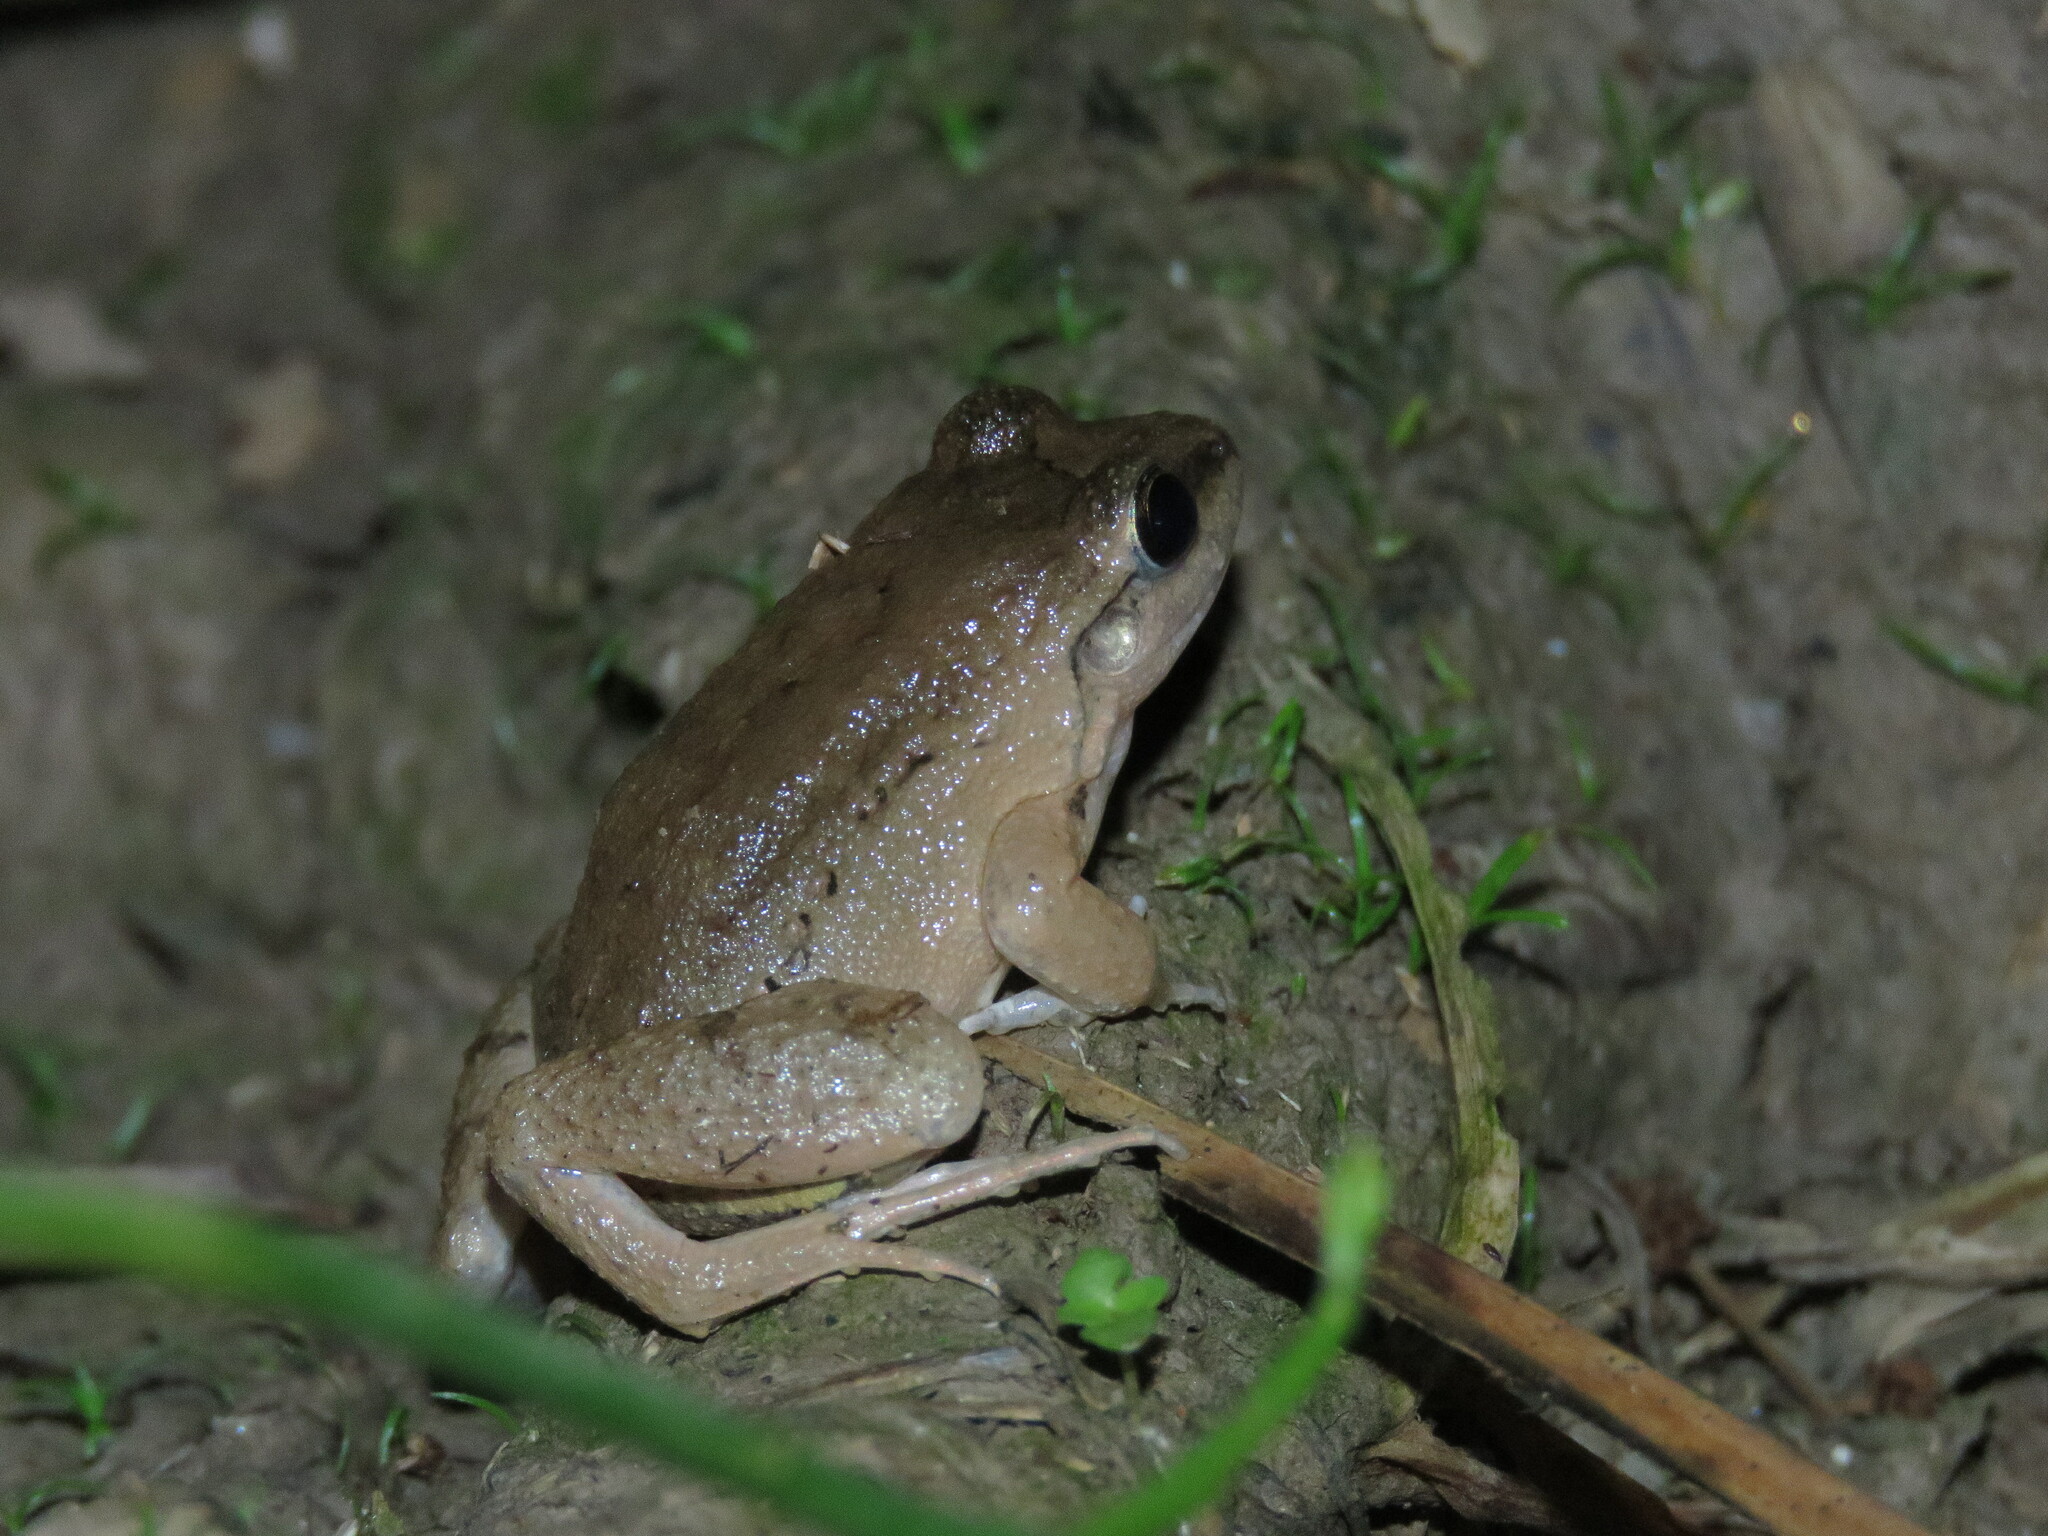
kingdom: Animalia
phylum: Chordata
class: Amphibia
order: Anura
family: Leptodactylidae
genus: Leptodactylus
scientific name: Leptodactylus leptodactyloides
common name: Common thin-toed frog
